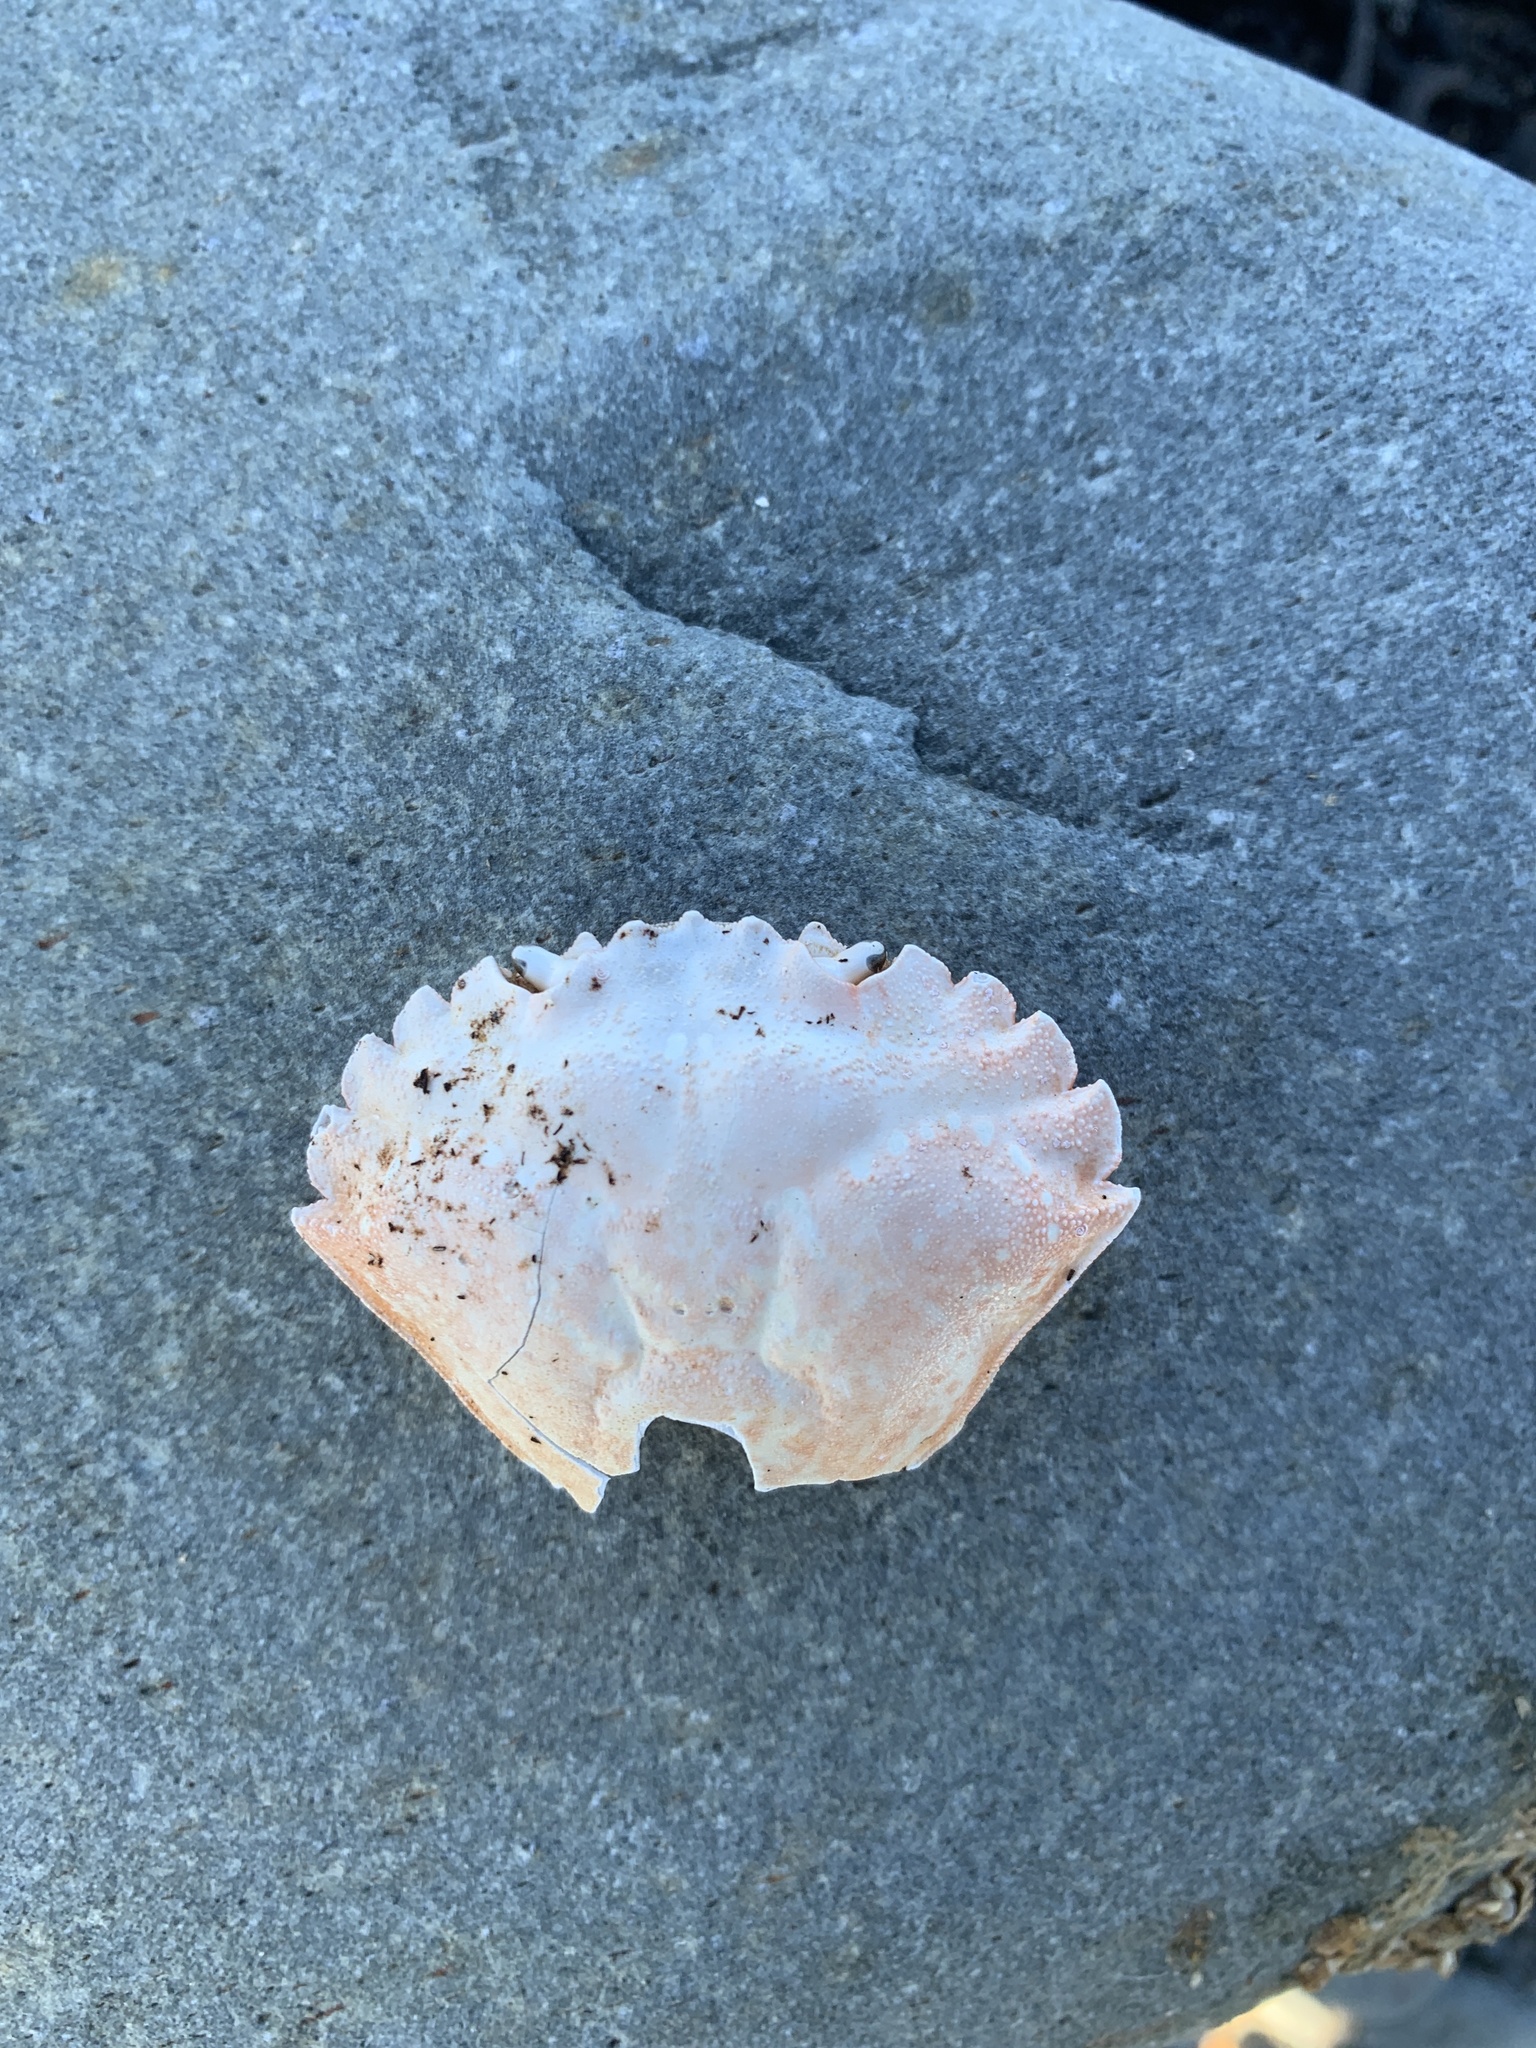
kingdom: Animalia
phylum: Arthropoda
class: Malacostraca
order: Decapoda
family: Carcinidae
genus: Carcinus
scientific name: Carcinus maenas
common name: European green crab
